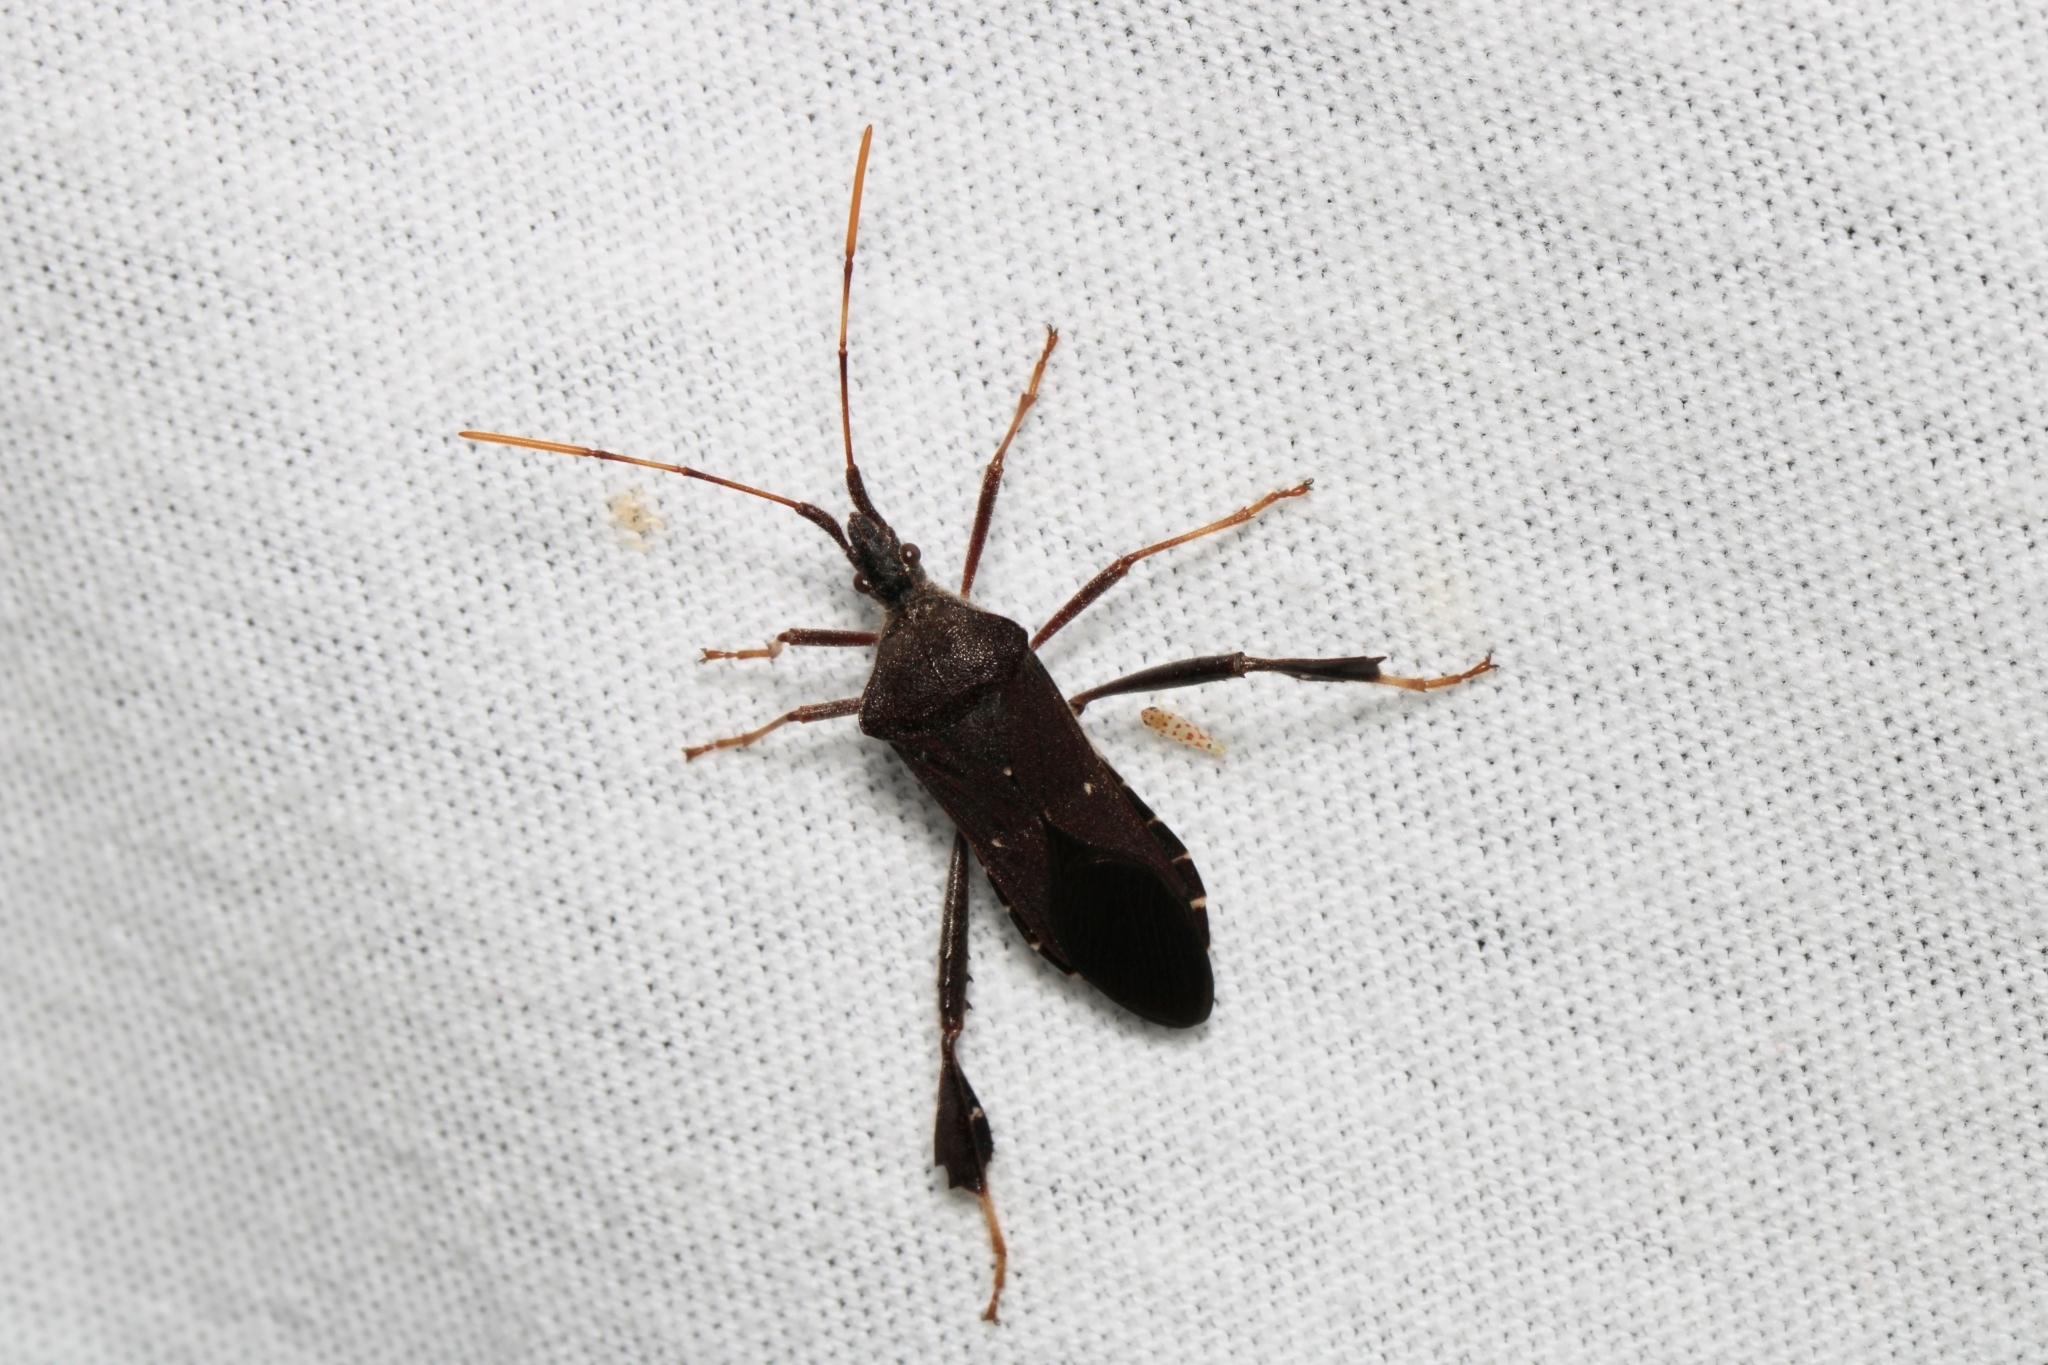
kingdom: Animalia
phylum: Arthropoda
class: Insecta
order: Hemiptera
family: Coreidae
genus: Leptoglossus
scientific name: Leptoglossus oppositus
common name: Northern leaf-footed bug
